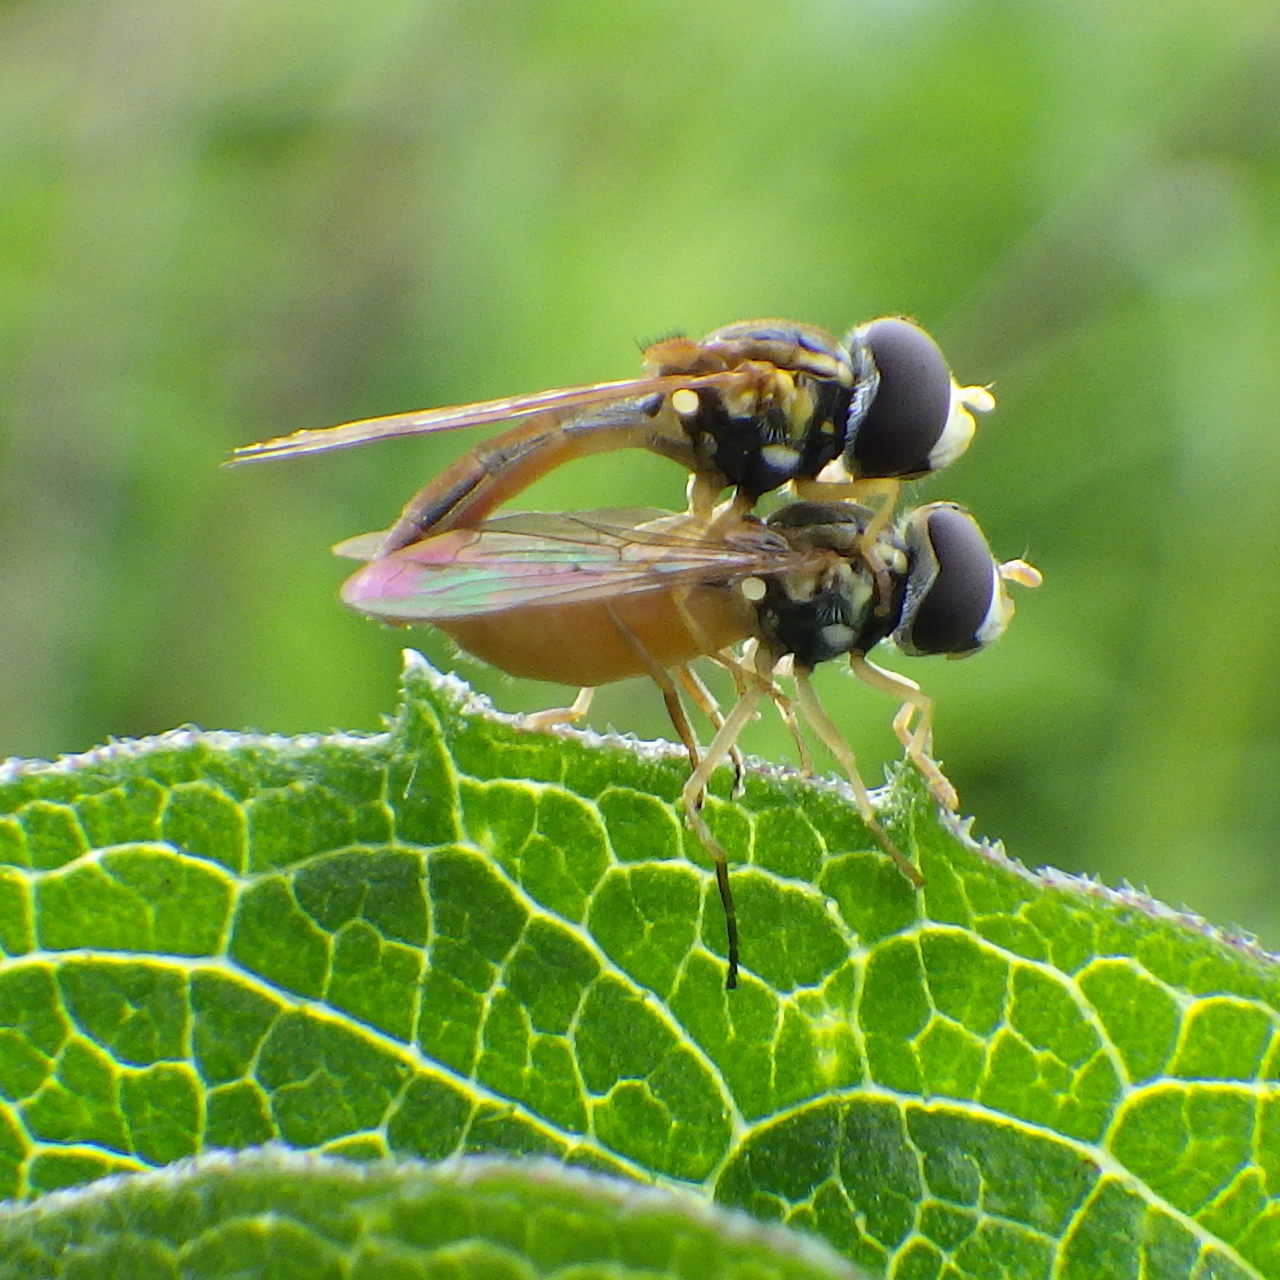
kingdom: Animalia
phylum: Arthropoda
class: Insecta
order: Diptera
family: Syrphidae
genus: Toxomerus
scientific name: Toxomerus marginatus
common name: Syrphid fly
